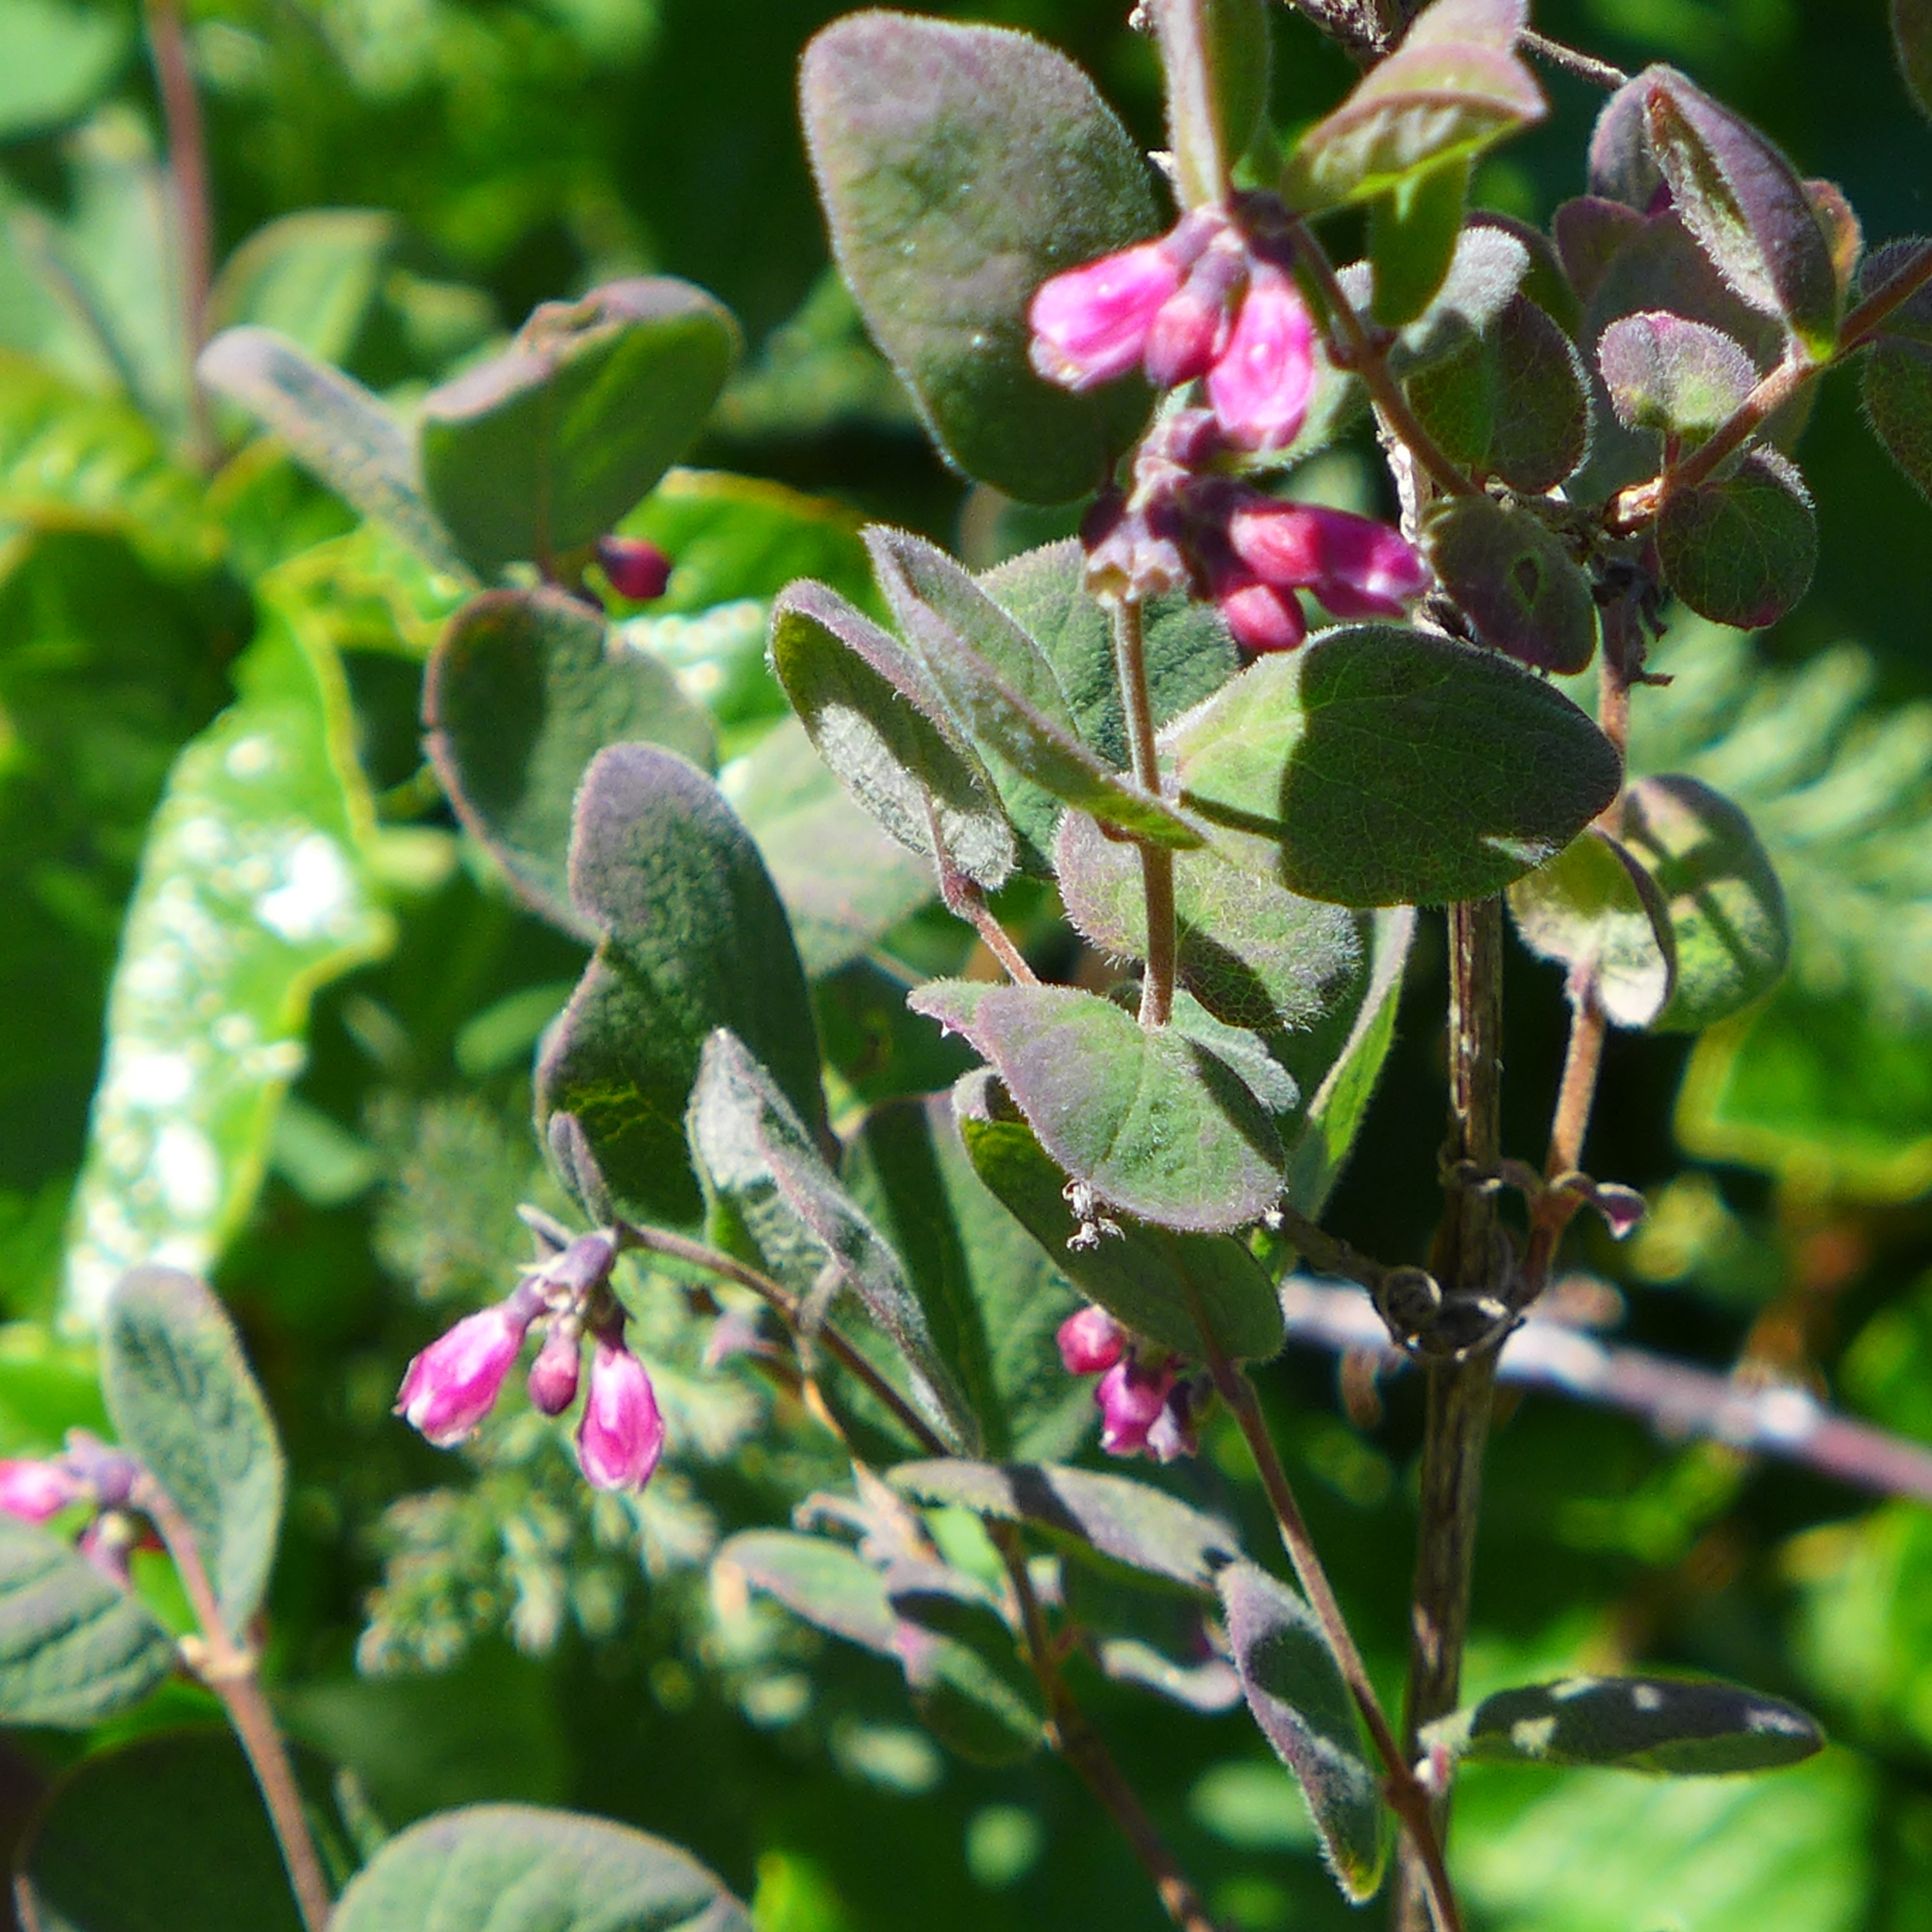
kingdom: Plantae
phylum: Tracheophyta
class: Magnoliopsida
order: Dipsacales
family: Caprifoliaceae
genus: Symphoricarpos
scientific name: Symphoricarpos mollis
